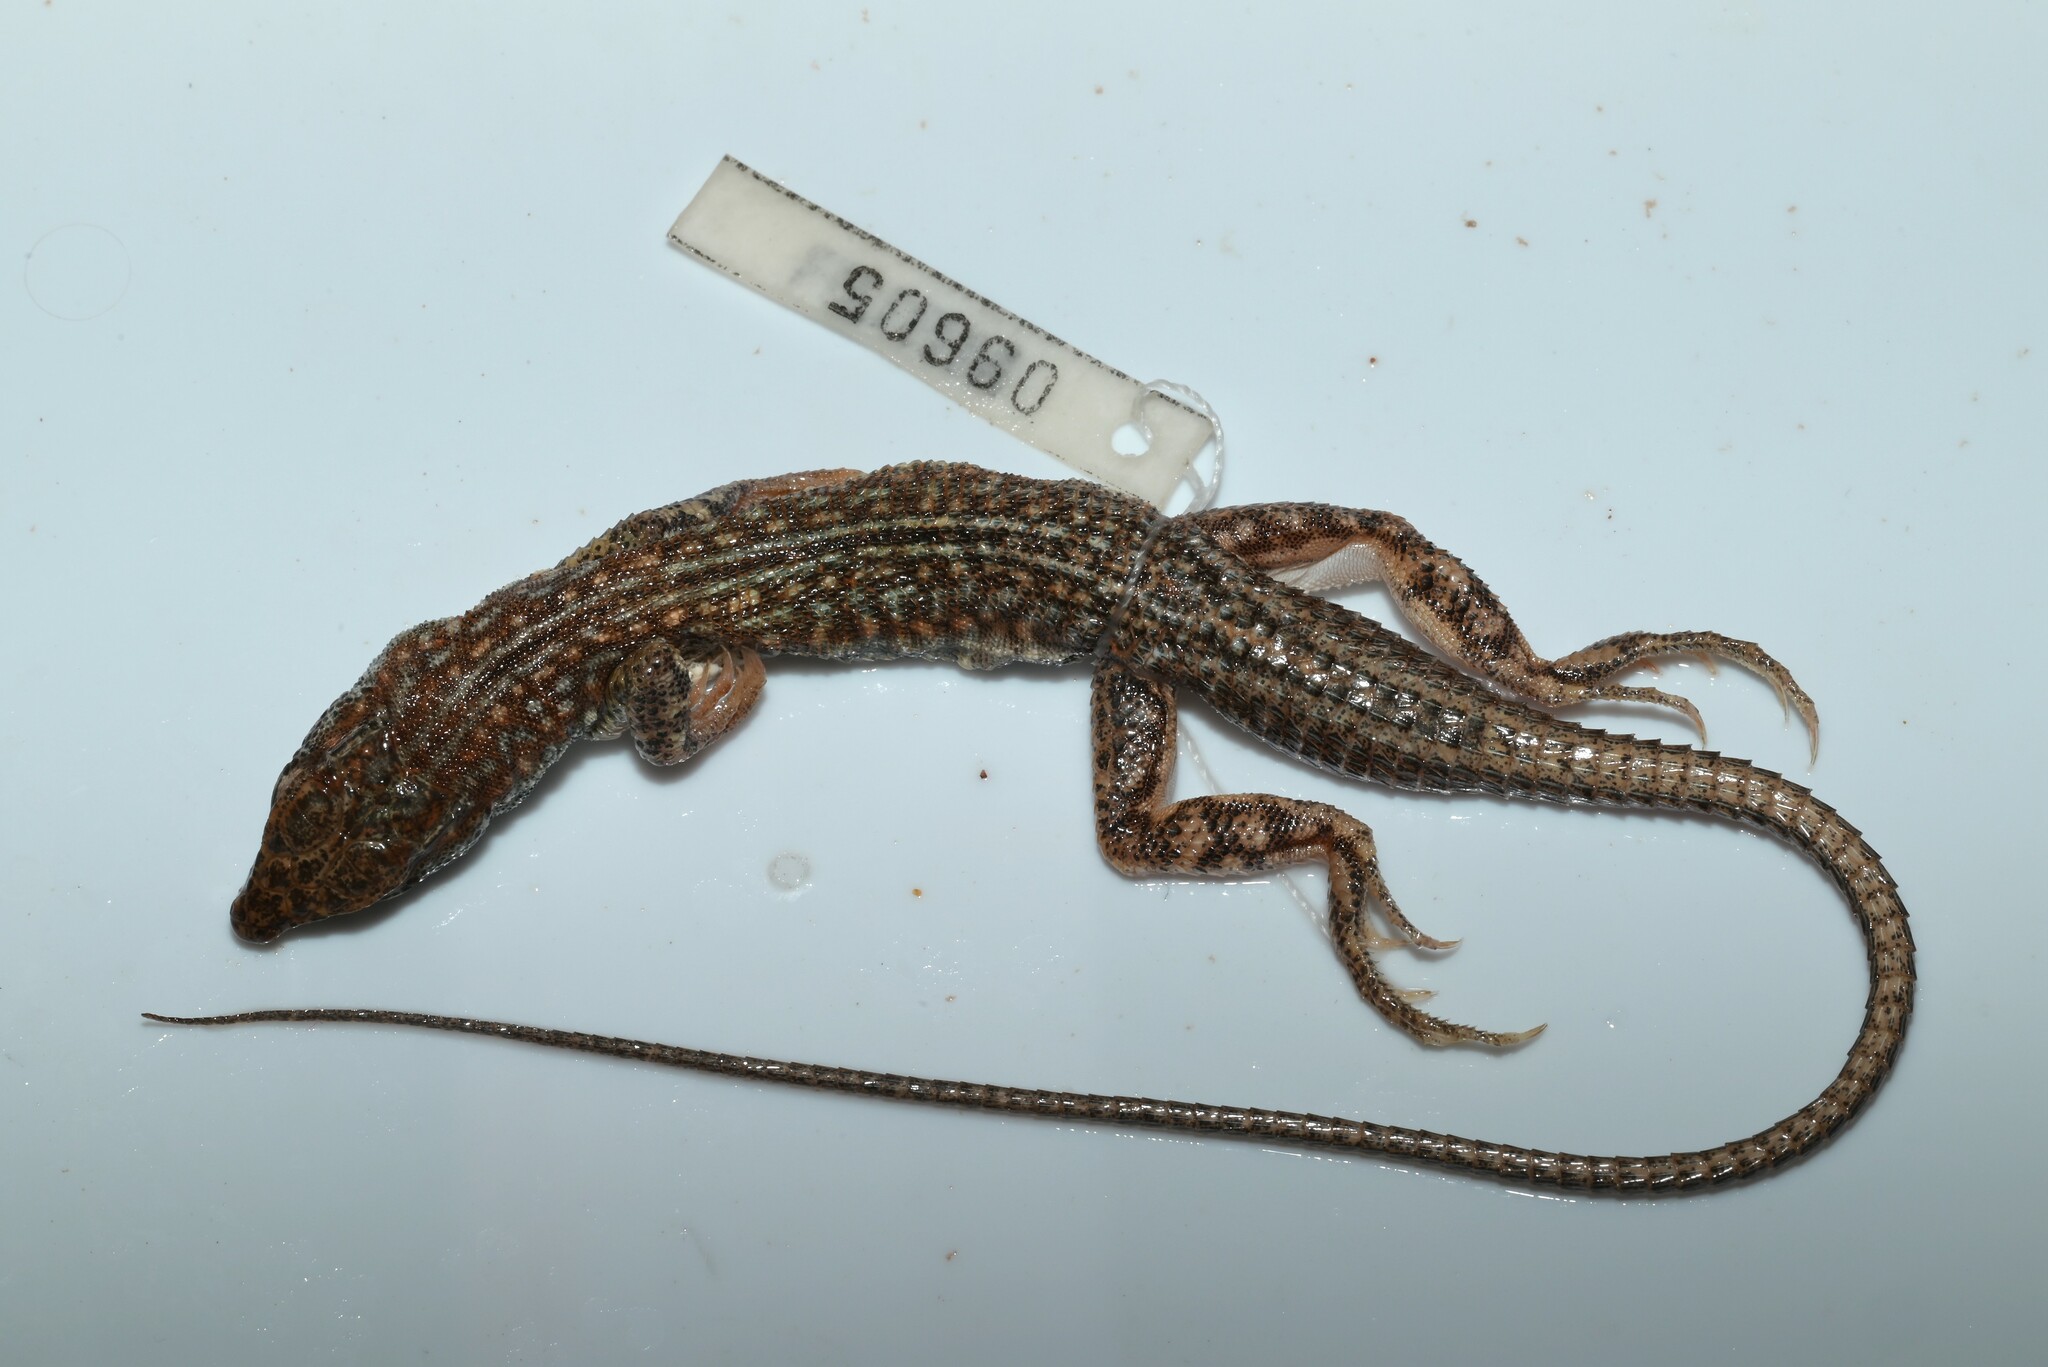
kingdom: Animalia
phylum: Chordata
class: Squamata
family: Lacertidae
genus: Acanthodactylus
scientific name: Acanthodactylus opheodurus
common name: Arnold's fringe-fingered lizard
